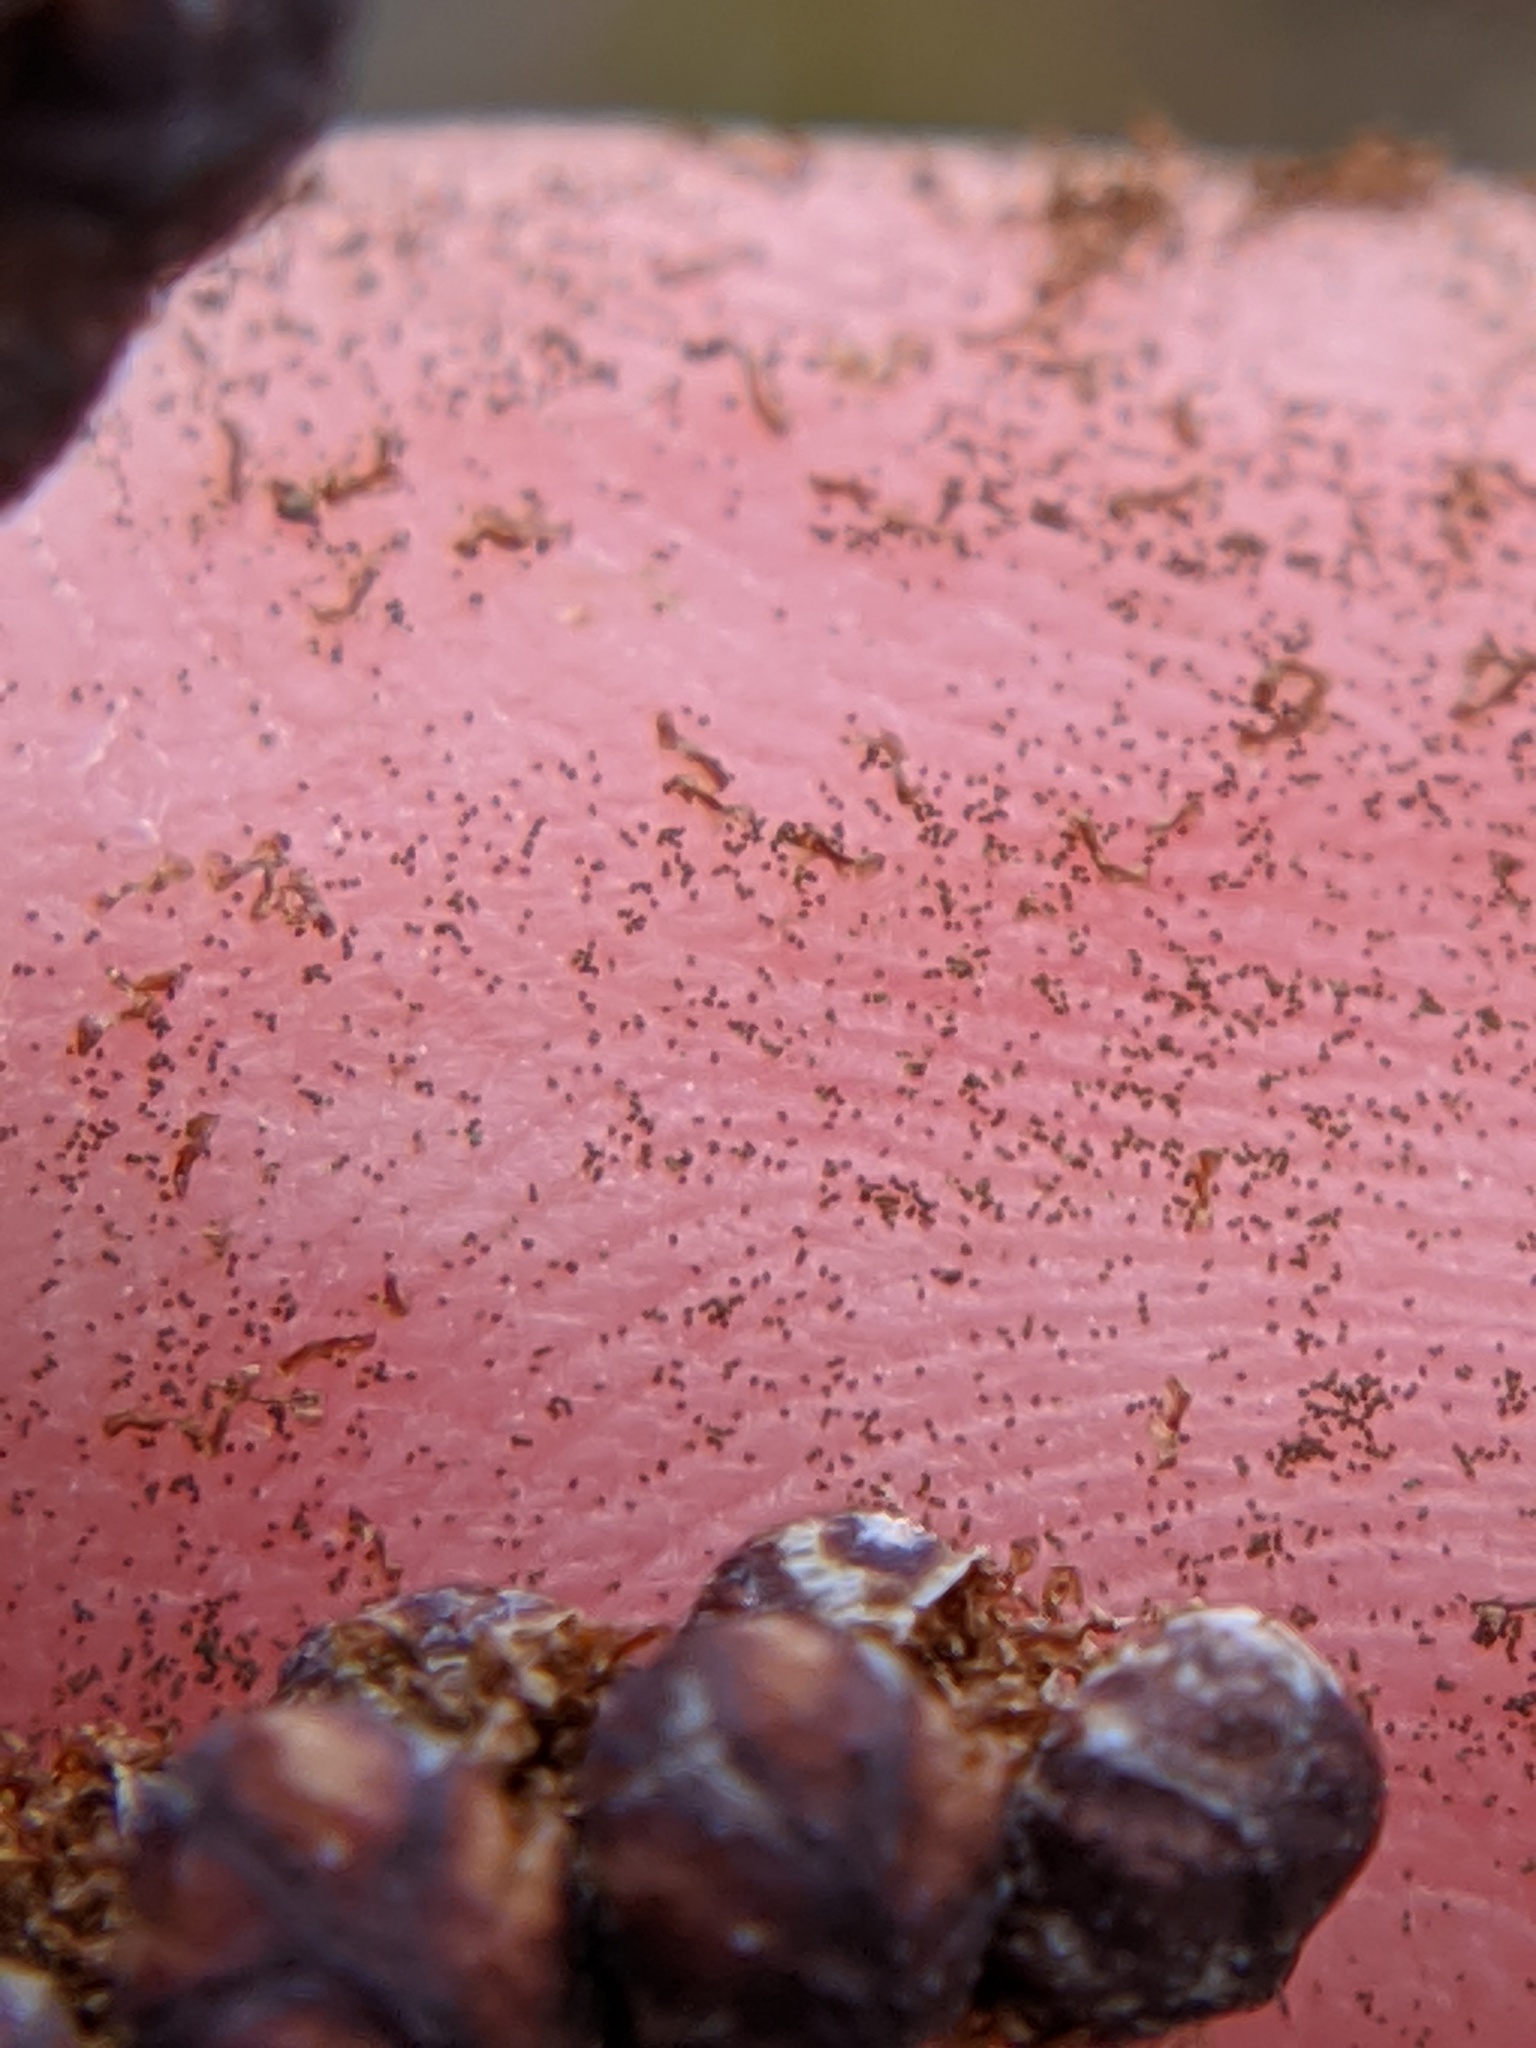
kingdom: Plantae
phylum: Tracheophyta
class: Polypodiopsida
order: Polypodiales
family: Onocleaceae
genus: Onoclea
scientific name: Onoclea sensibilis
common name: Sensitive fern
